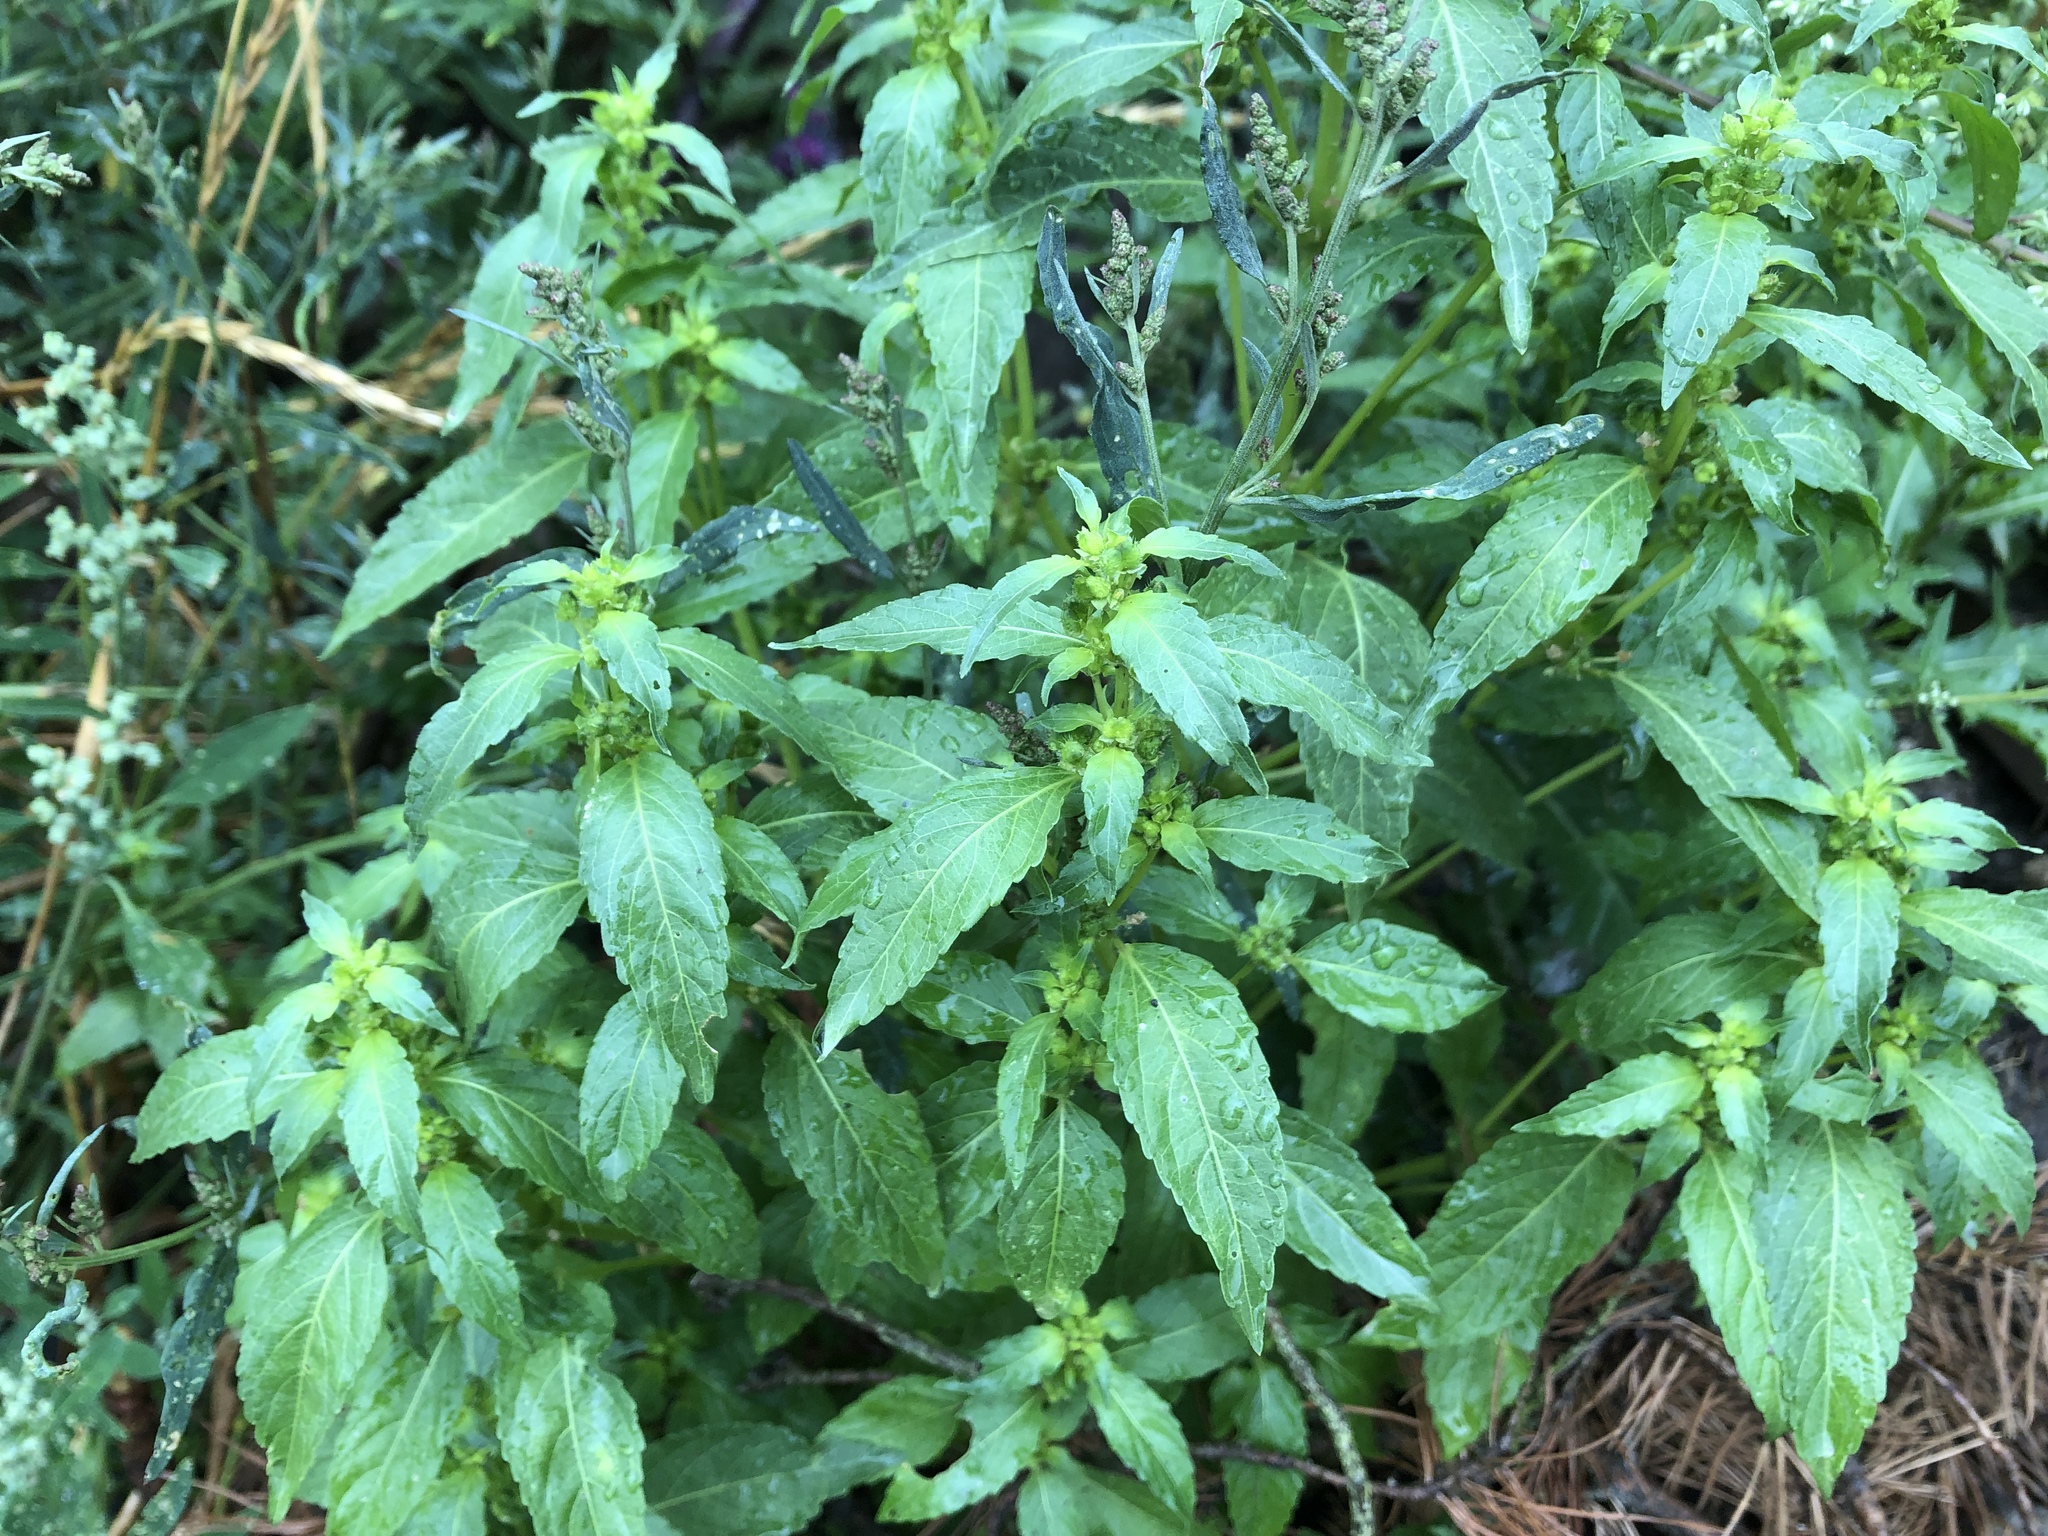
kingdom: Plantae
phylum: Tracheophyta
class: Magnoliopsida
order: Malpighiales
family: Euphorbiaceae
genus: Mercurialis
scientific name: Mercurialis annua
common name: Annual mercury
